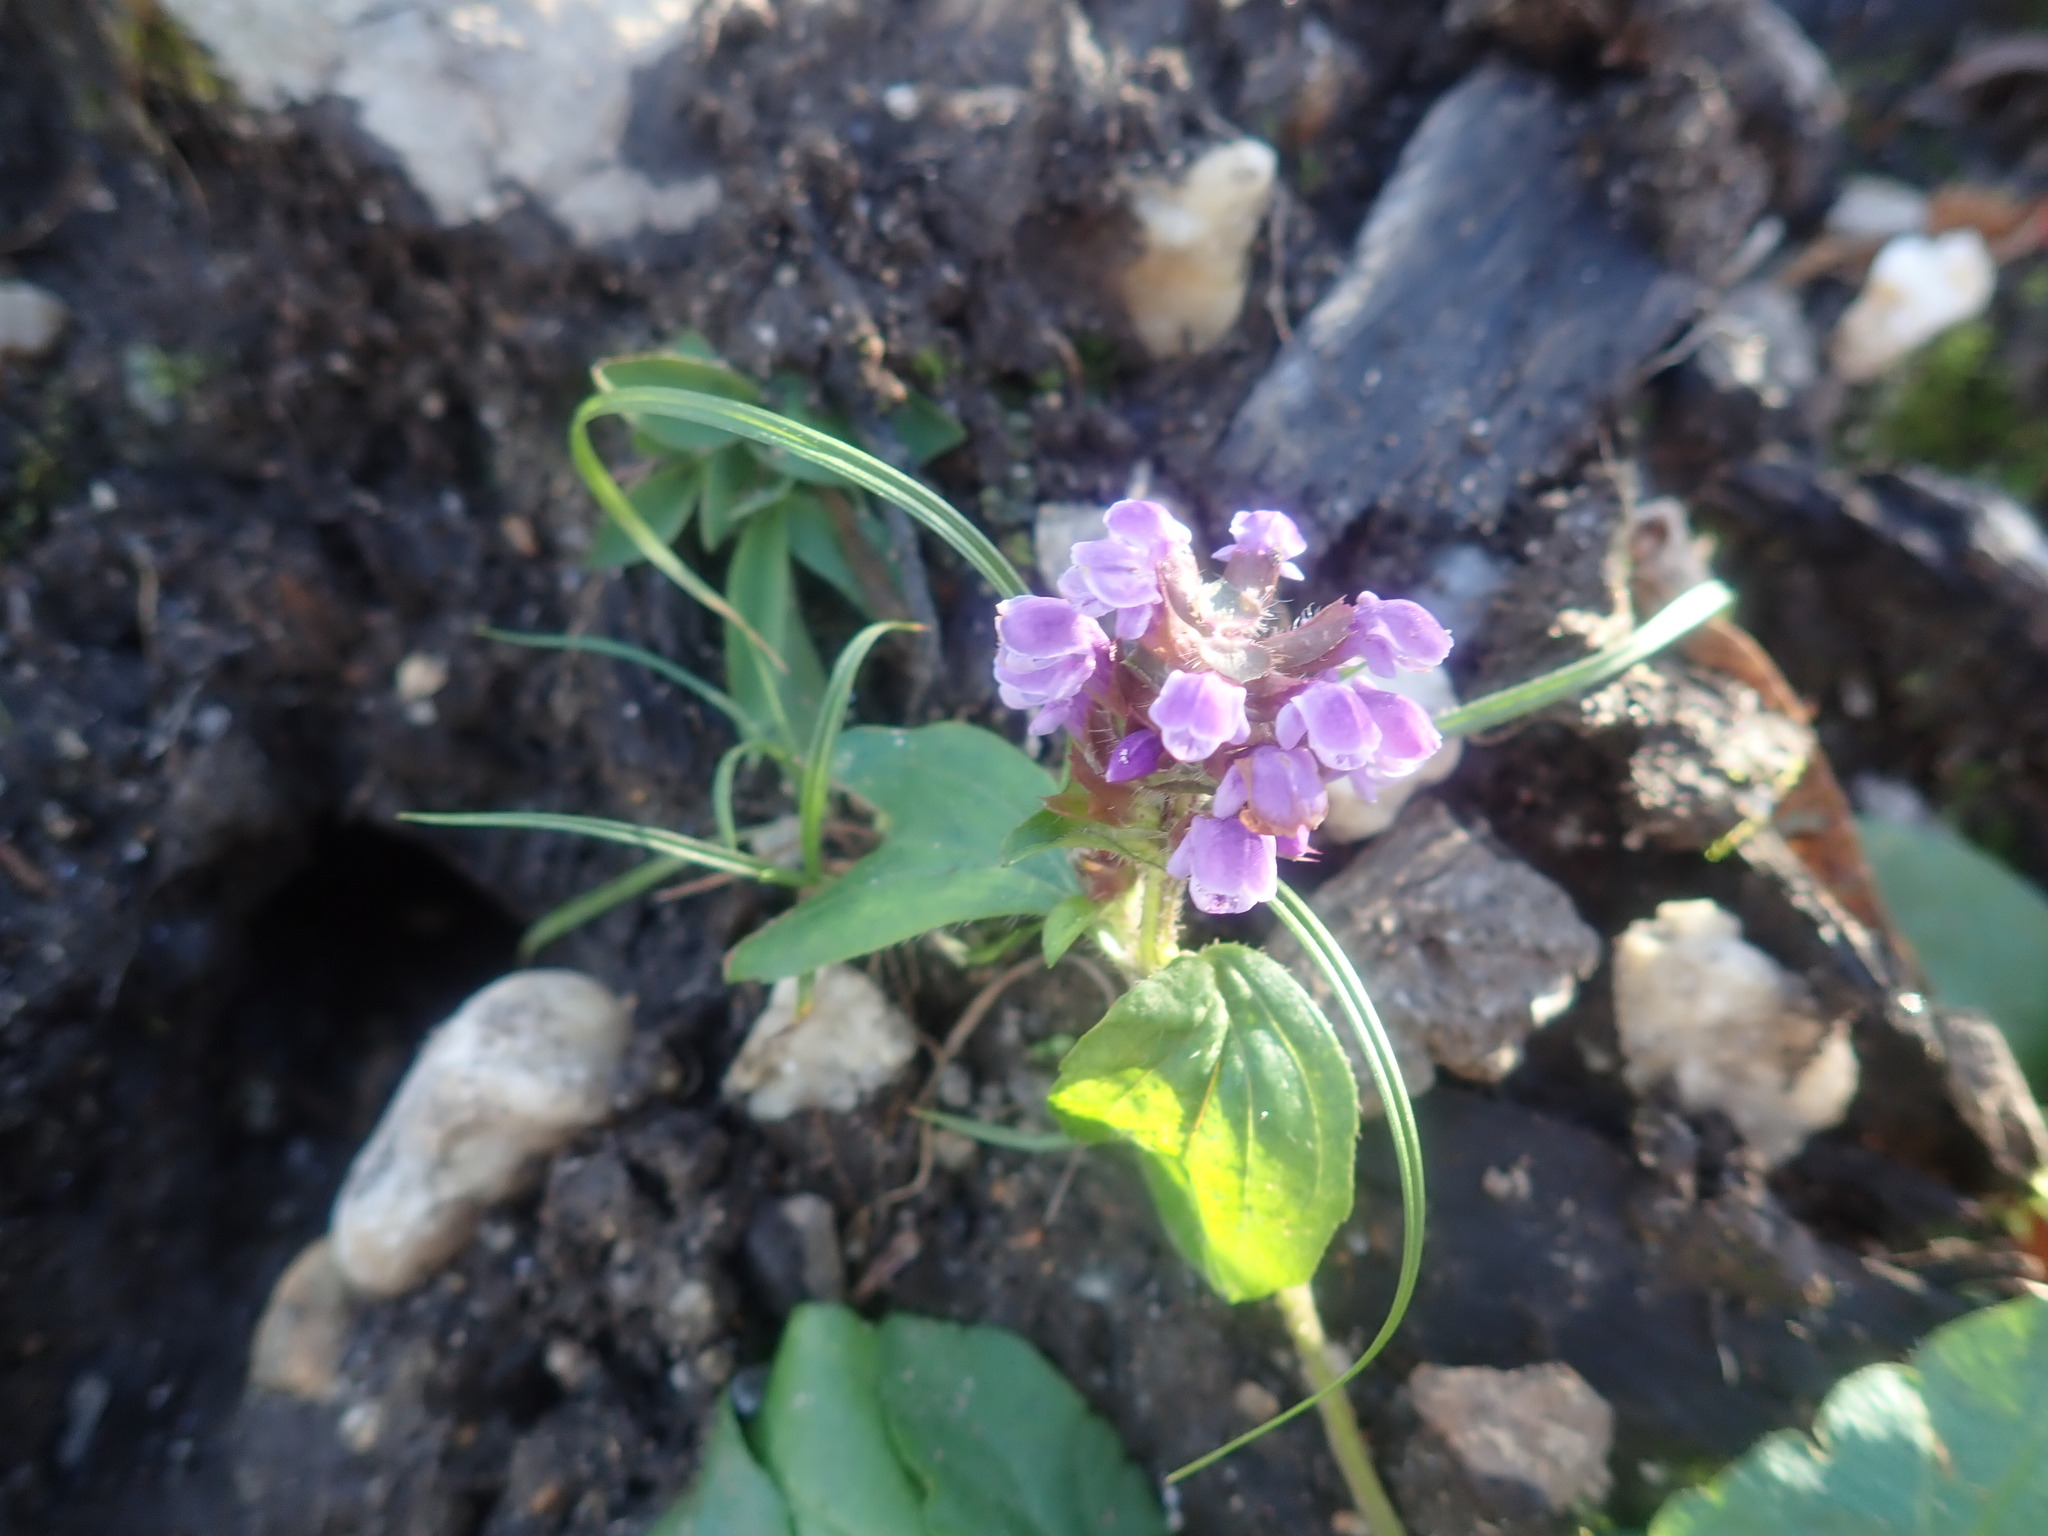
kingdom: Plantae
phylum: Tracheophyta
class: Magnoliopsida
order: Lamiales
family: Lamiaceae
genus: Prunella
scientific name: Prunella vulgaris
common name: Heal-all
